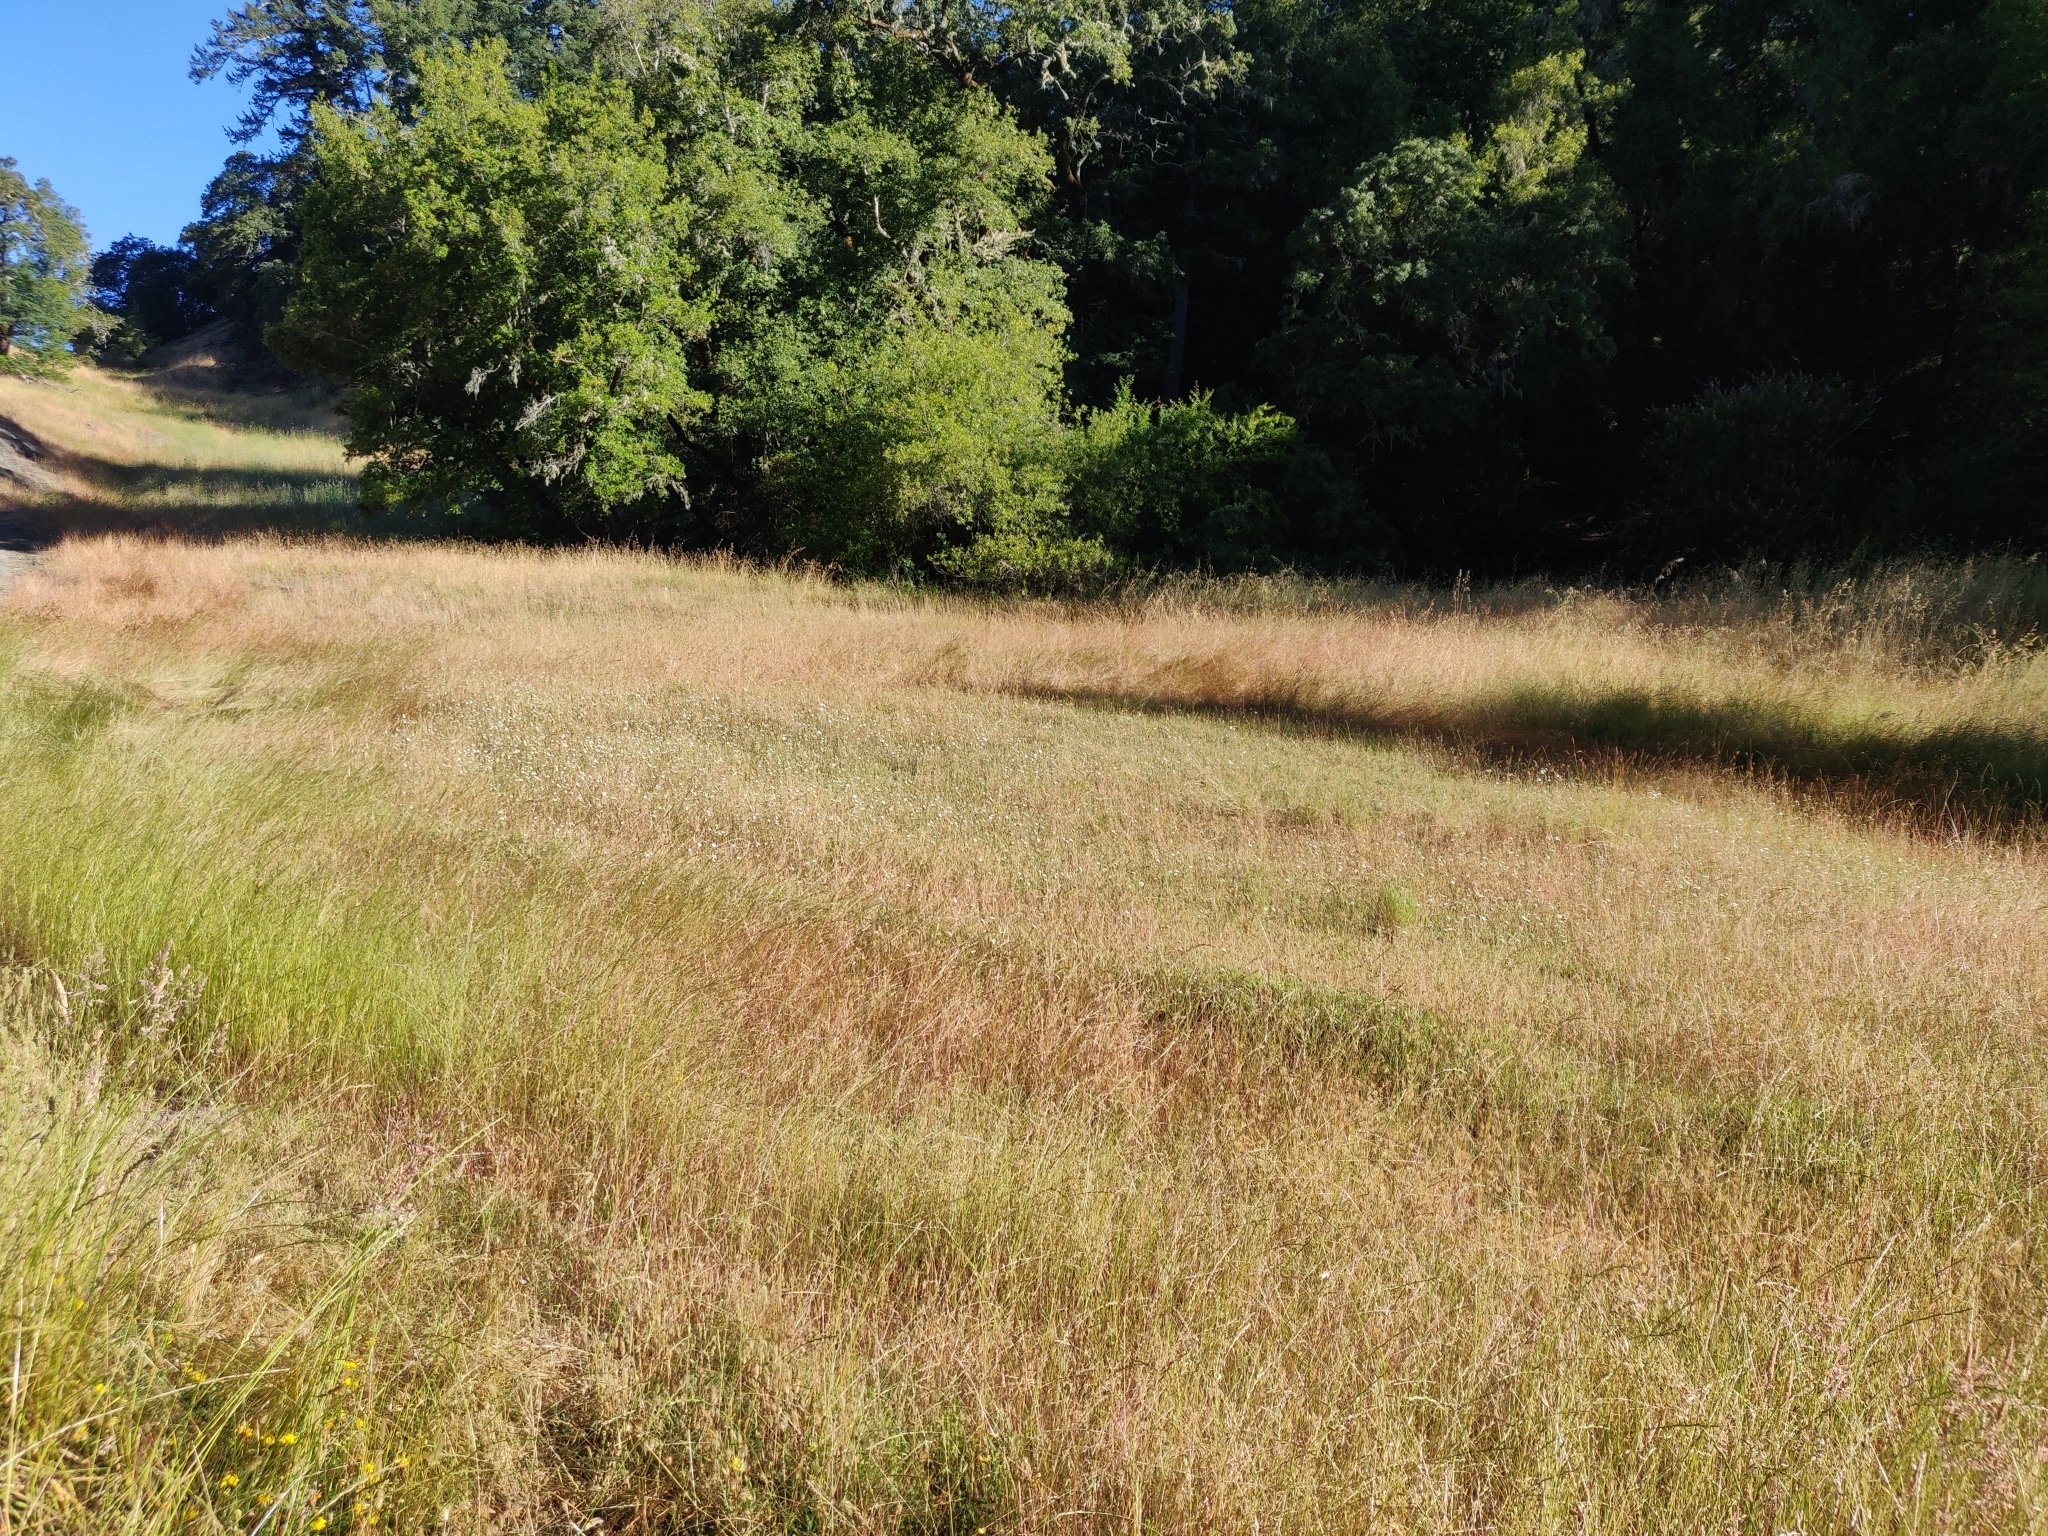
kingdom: Plantae
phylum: Tracheophyta
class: Magnoliopsida
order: Asterales
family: Asteraceae
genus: Hemizonia
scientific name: Hemizonia congesta
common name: Hayfield tarweed
